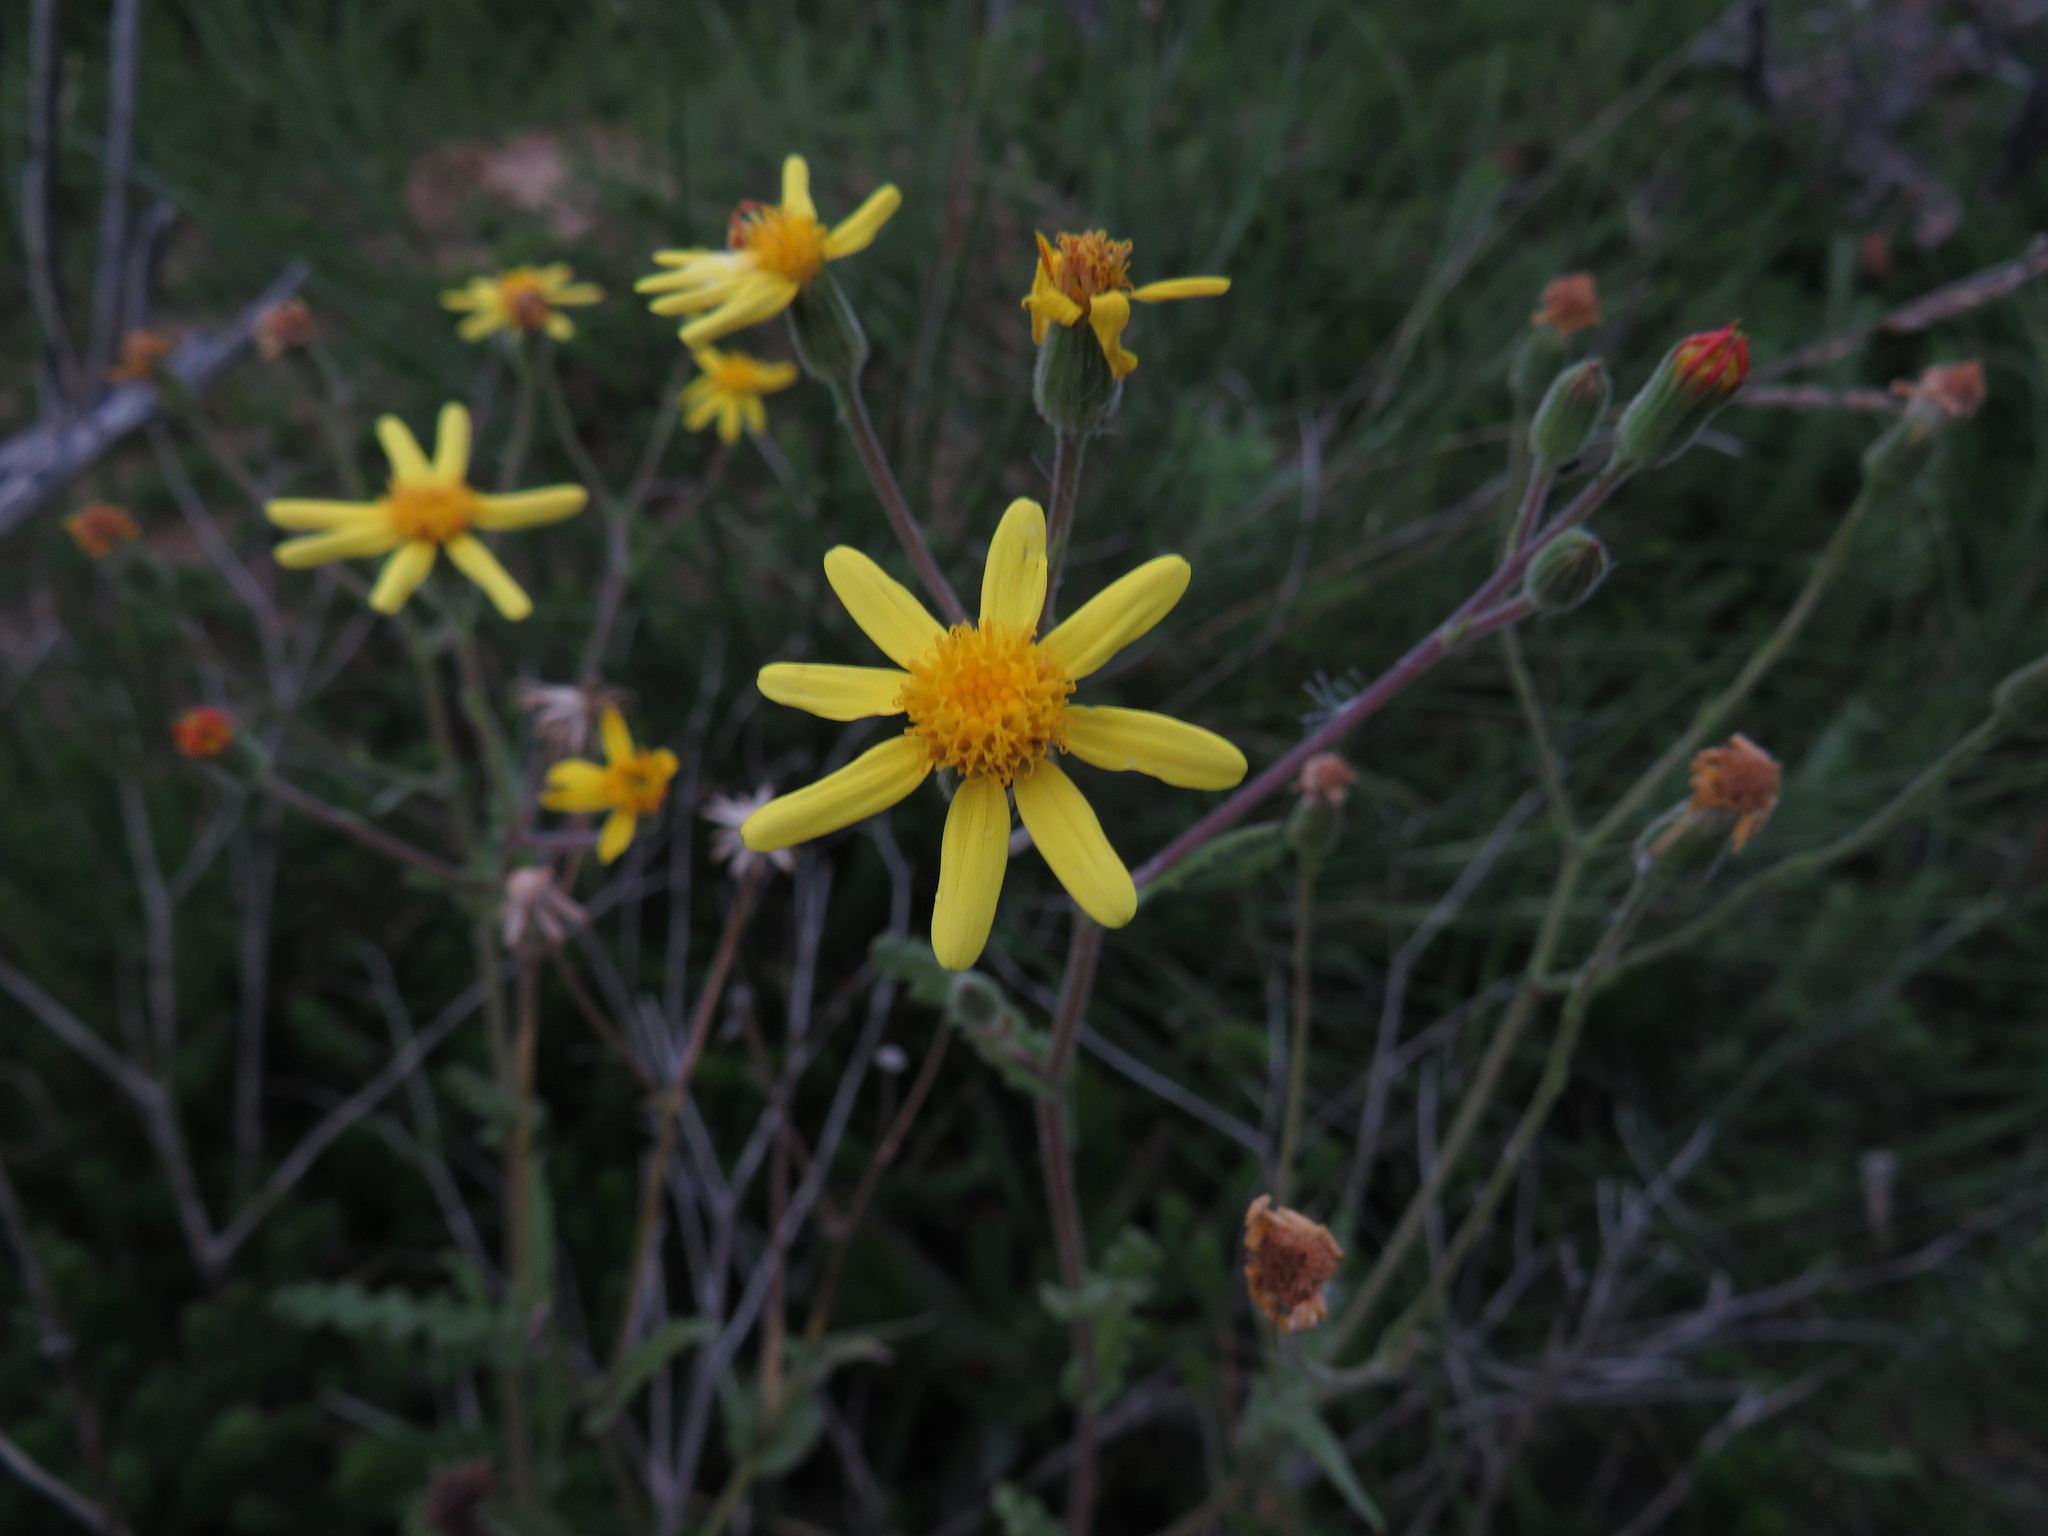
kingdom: Plantae
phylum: Tracheophyta
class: Magnoliopsida
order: Asterales
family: Asteraceae
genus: Senecio
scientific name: Senecio hastatus
